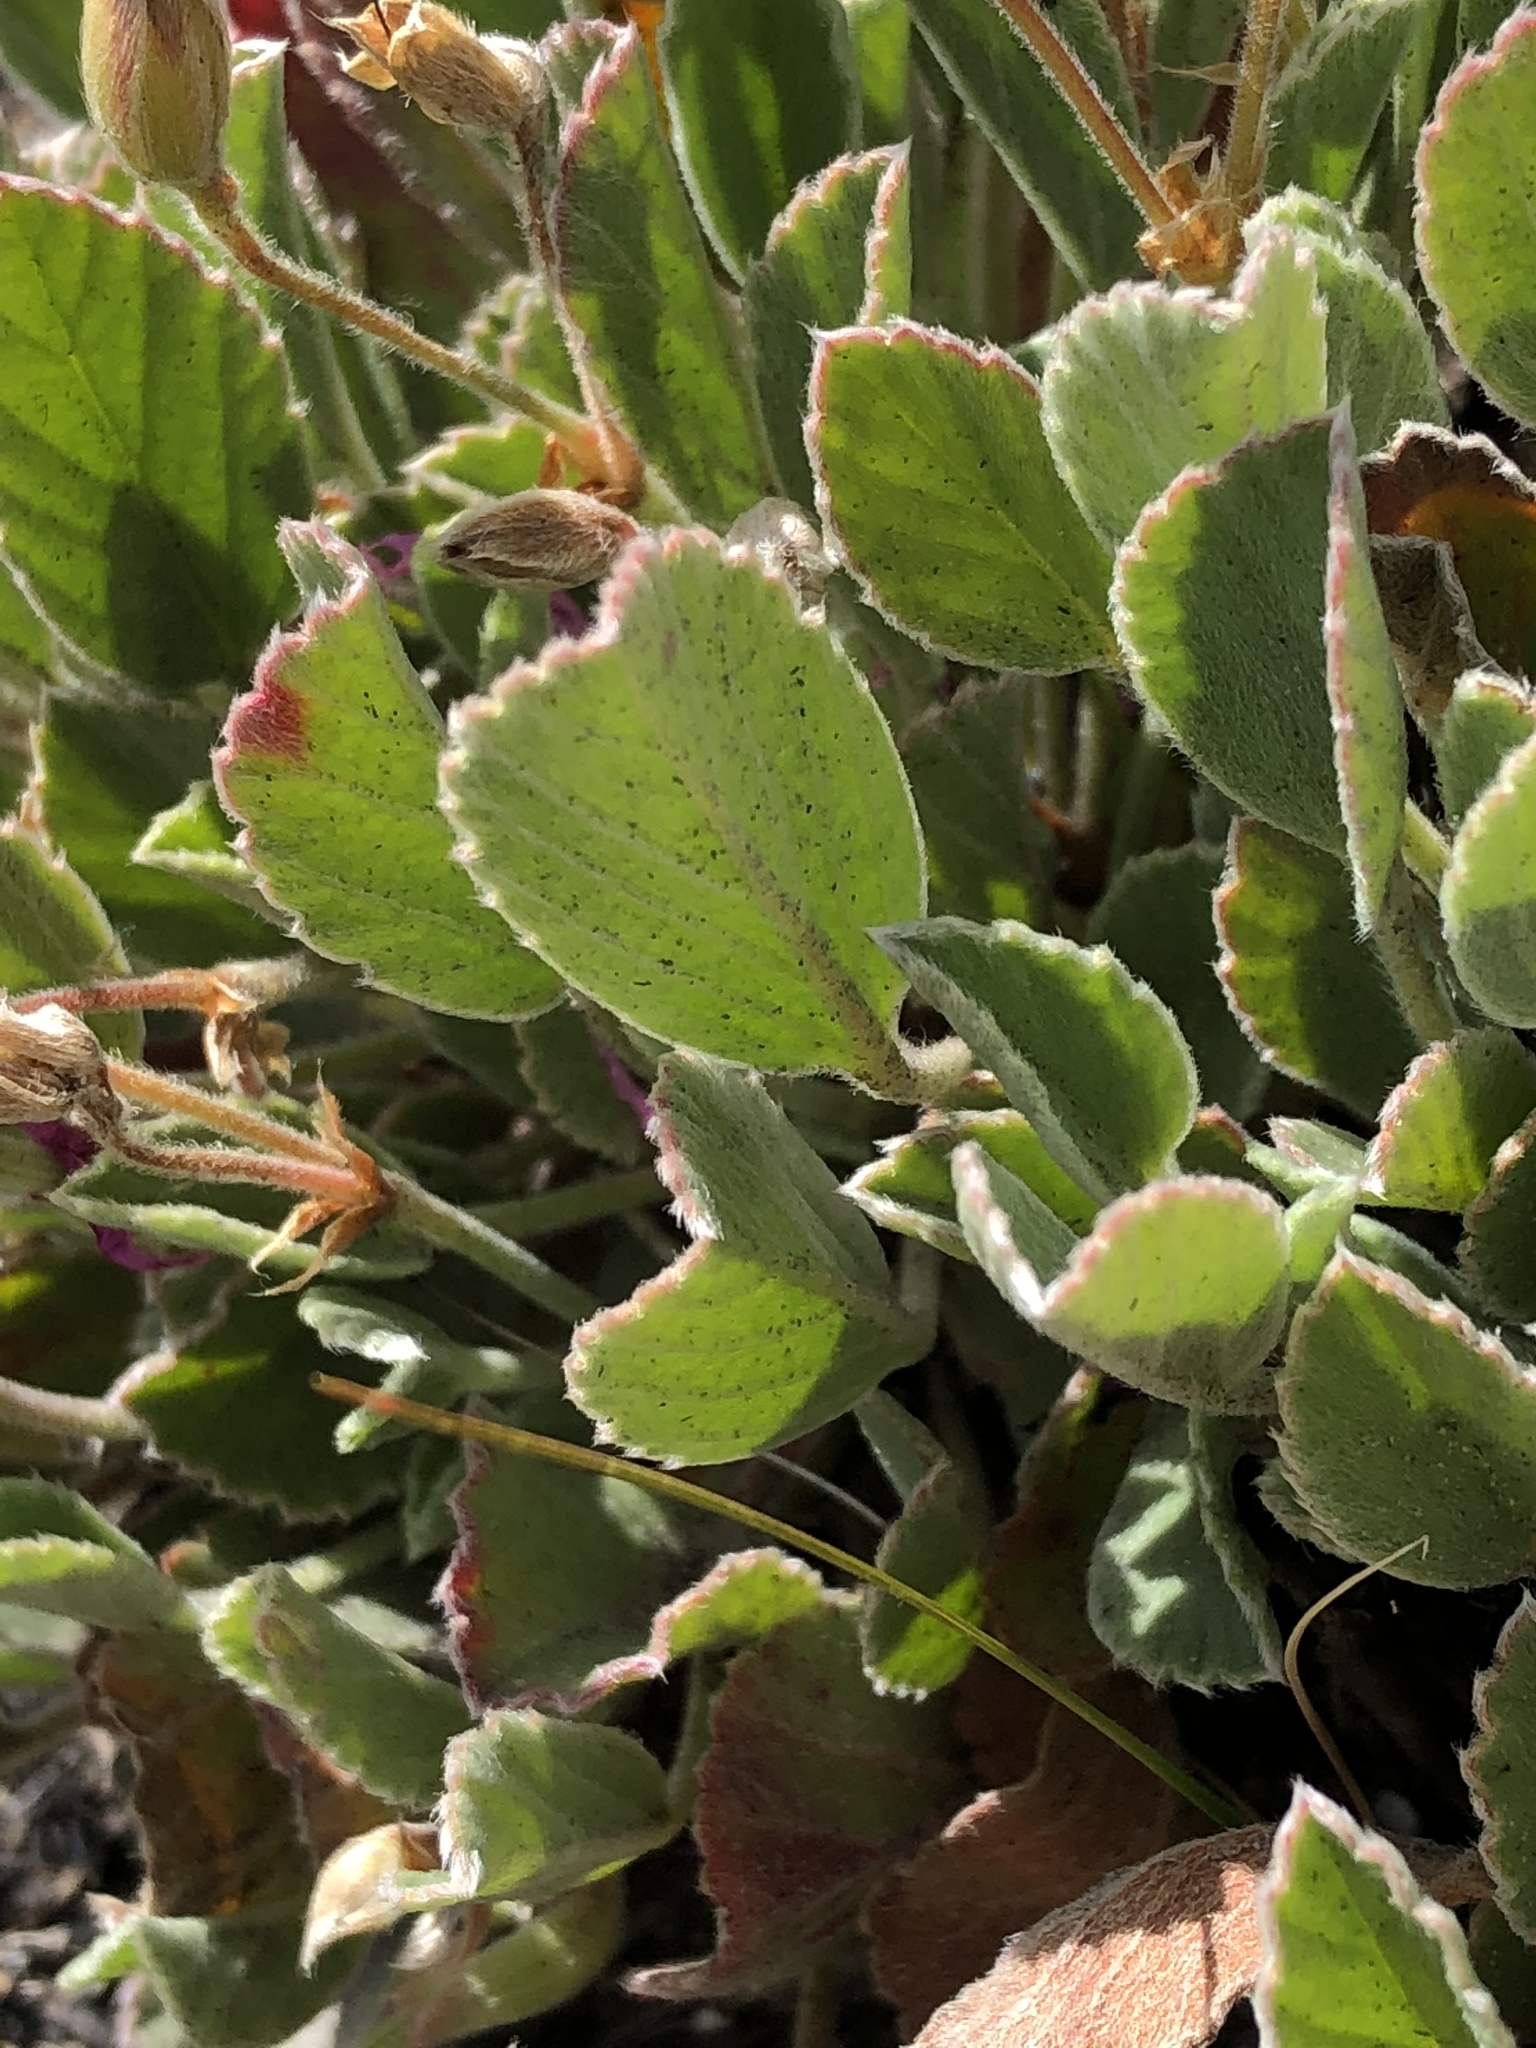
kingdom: Plantae
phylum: Tracheophyta
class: Magnoliopsida
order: Geraniales
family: Geraniaceae
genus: Pelargonium
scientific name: Pelargonium ovale
